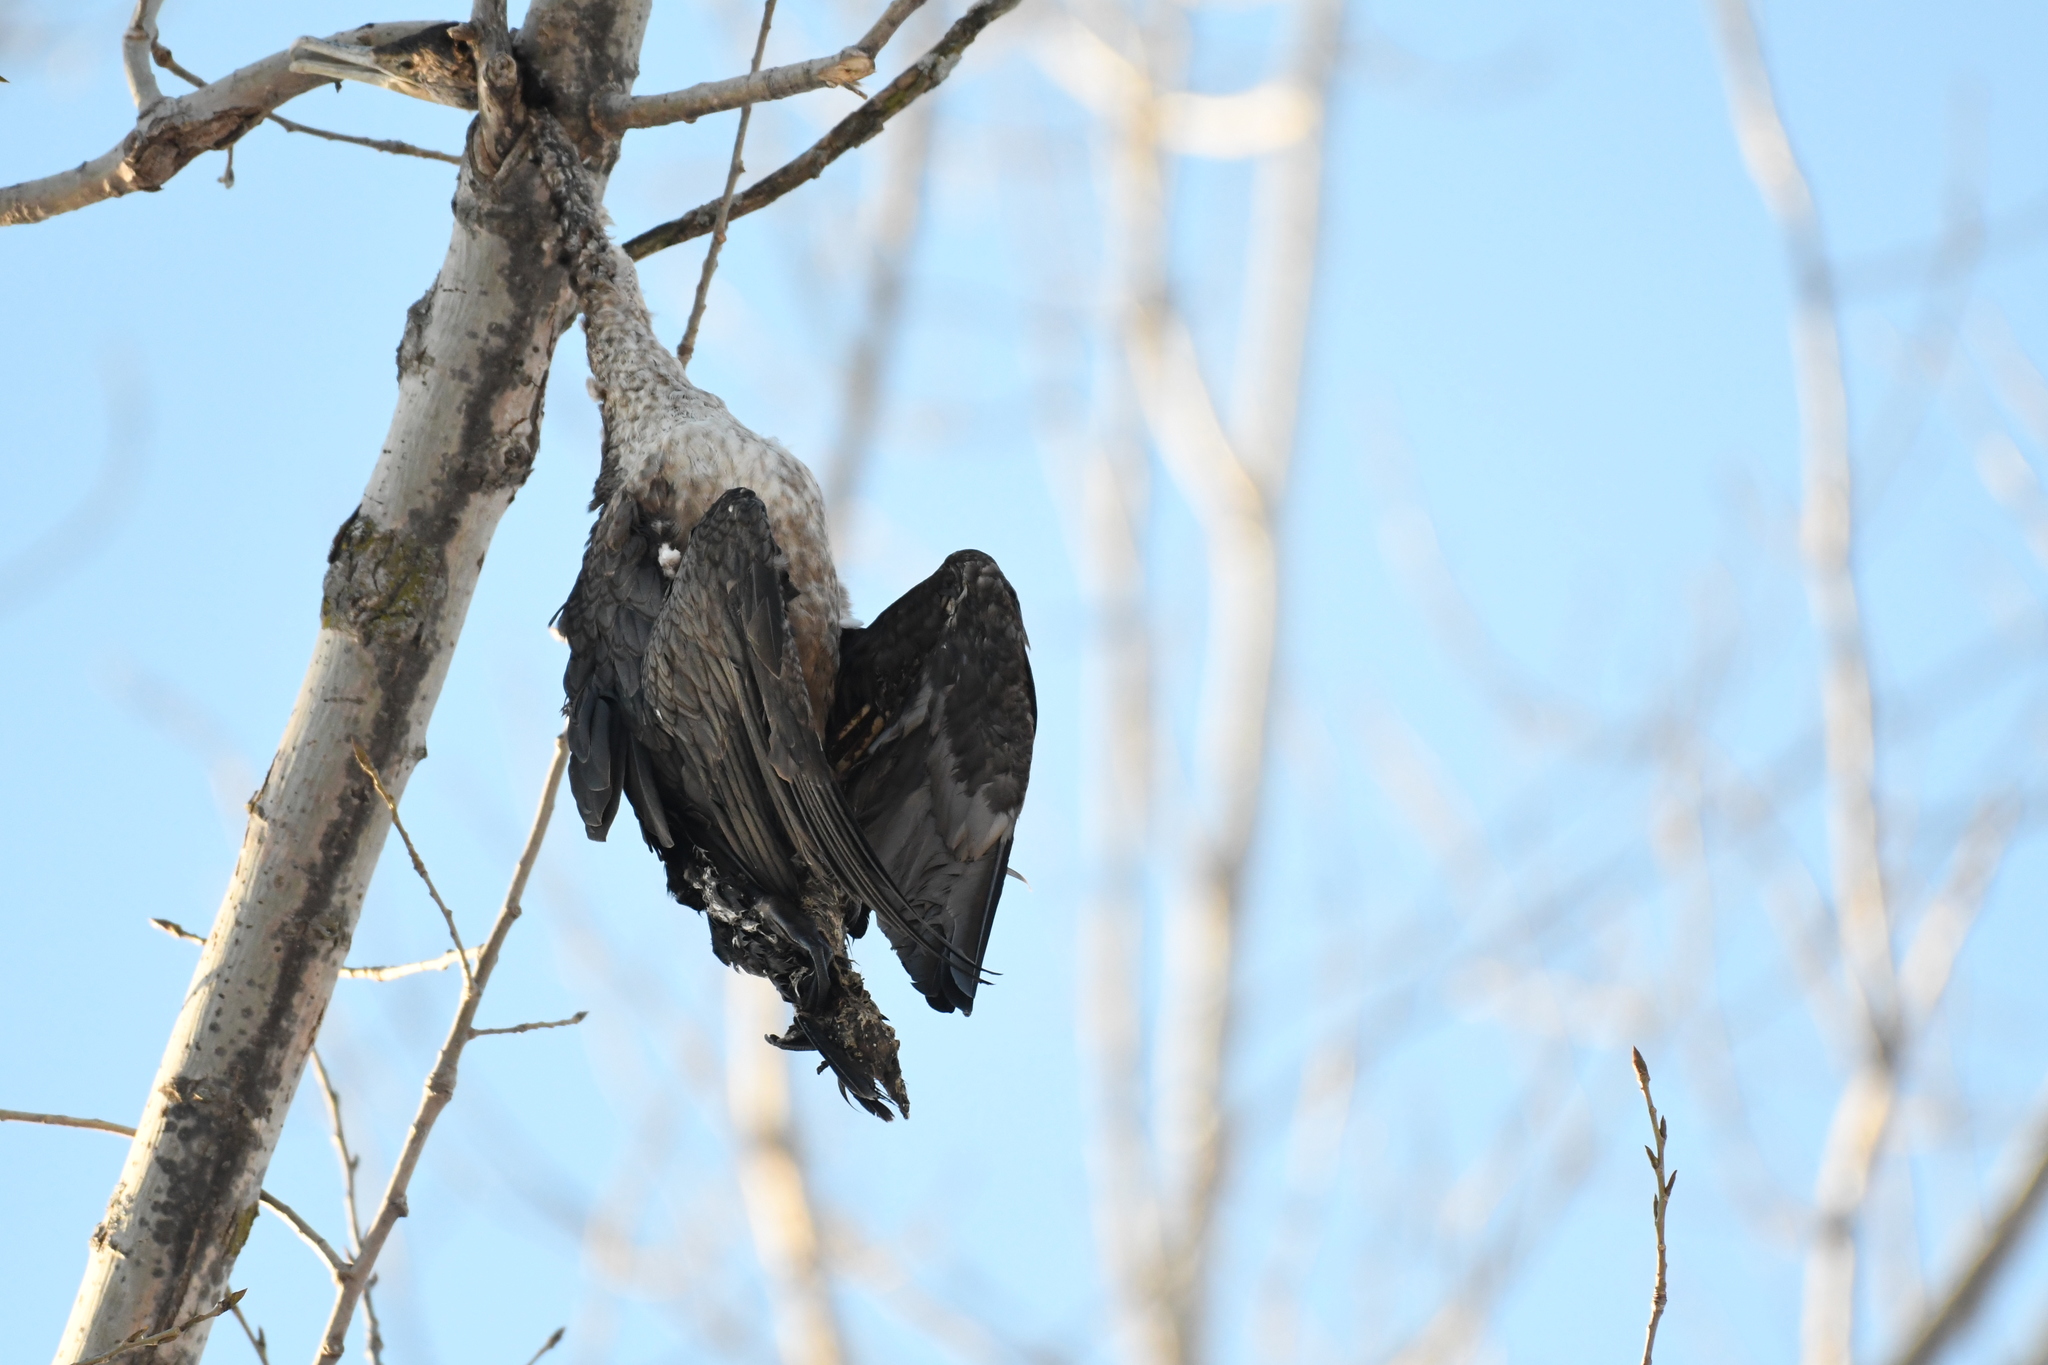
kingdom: Animalia
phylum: Chordata
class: Aves
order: Suliformes
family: Phalacrocoracidae
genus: Phalacrocorax
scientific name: Phalacrocorax auritus
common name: Double-crested cormorant
